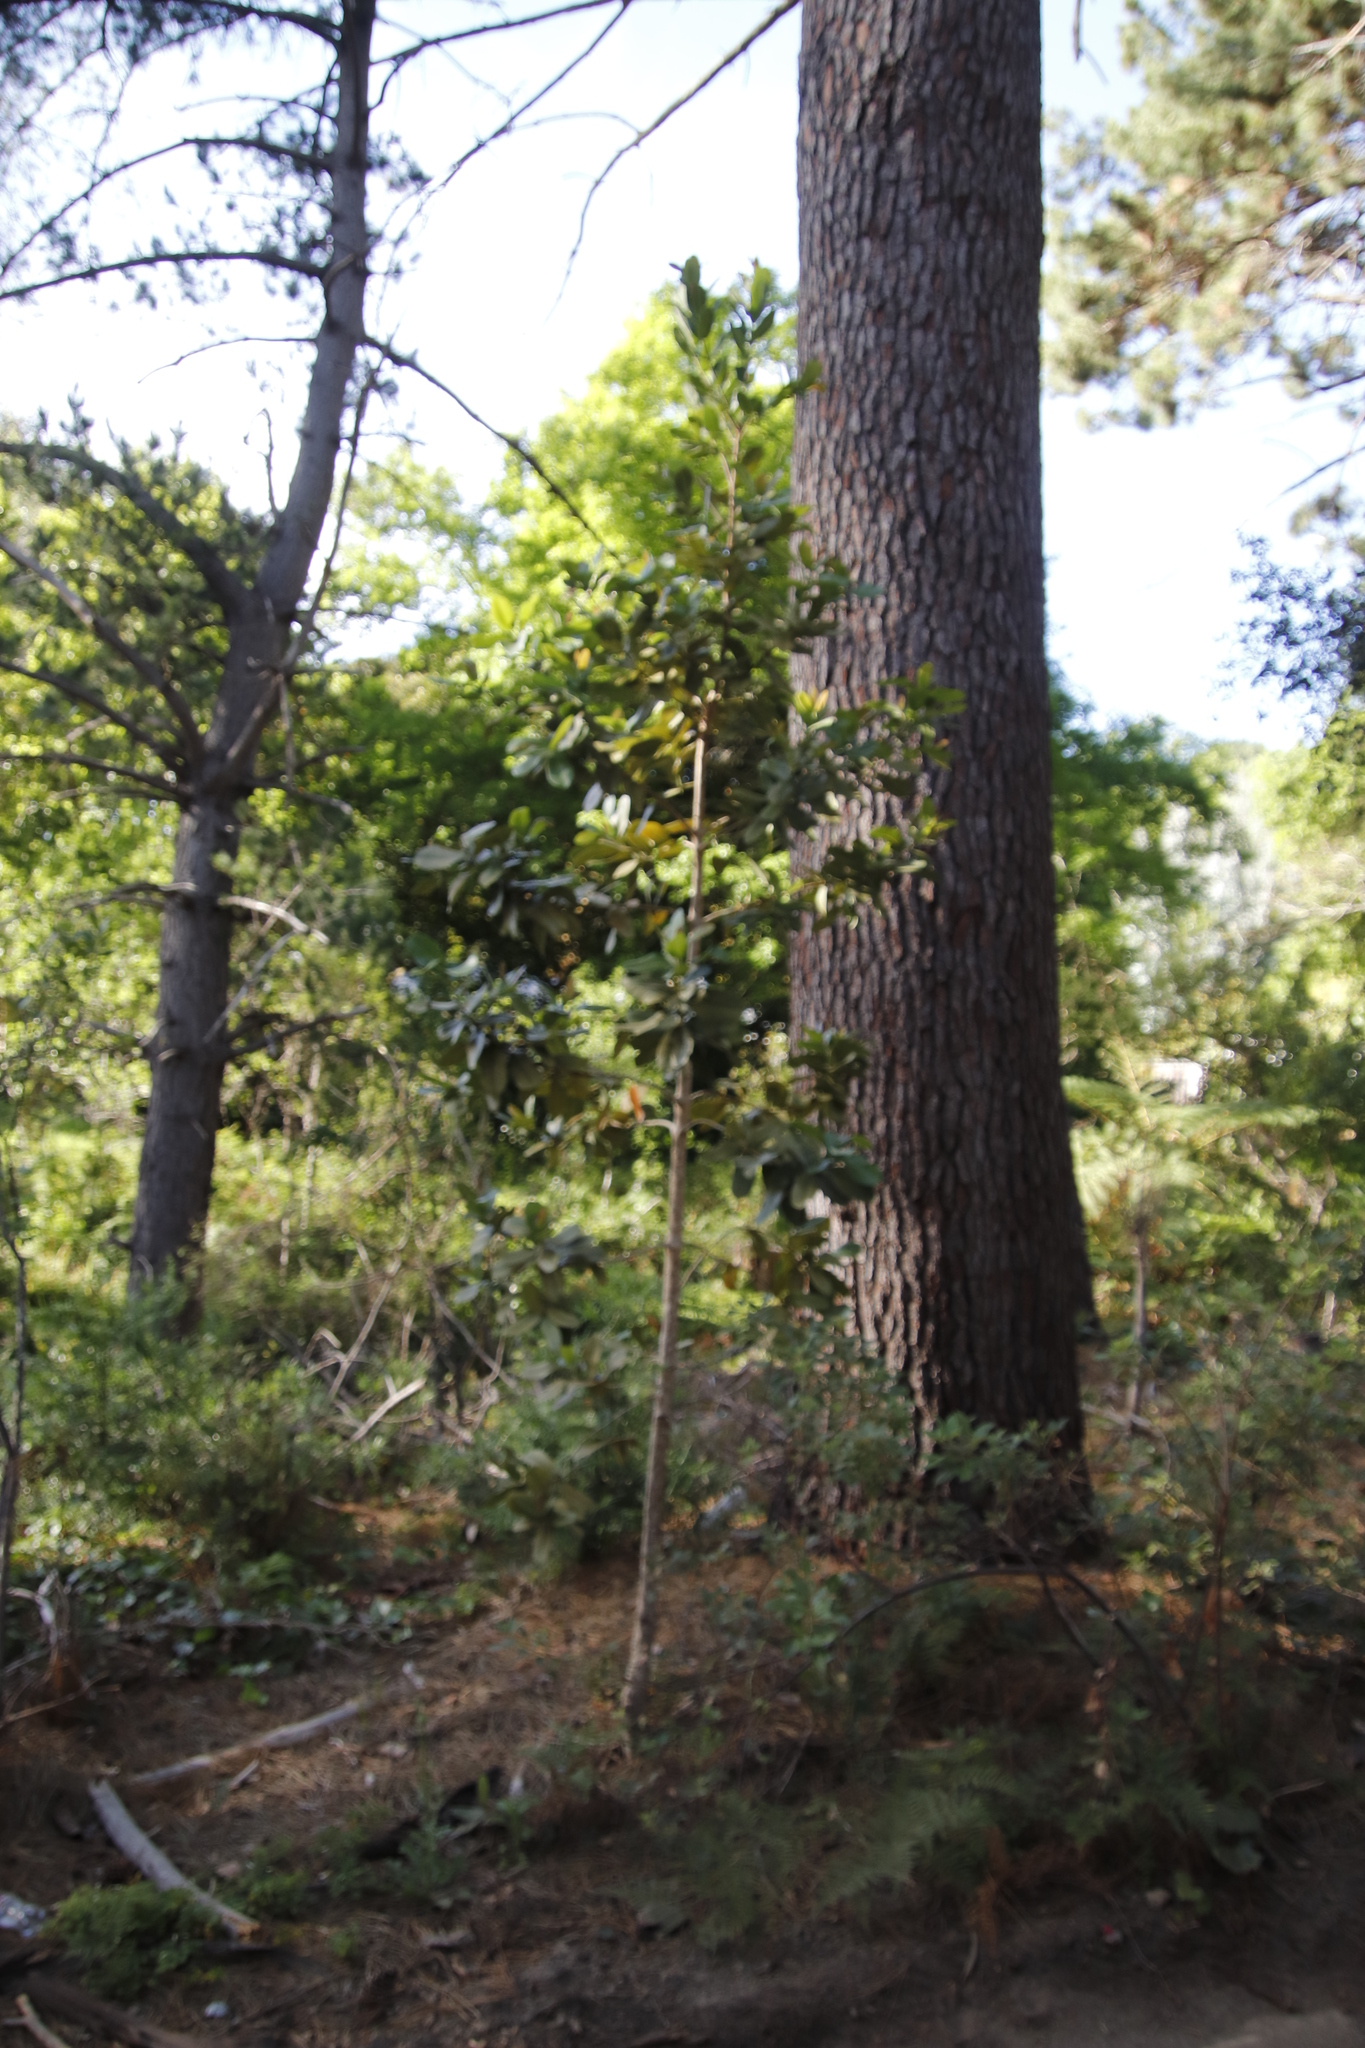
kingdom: Plantae
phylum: Tracheophyta
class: Magnoliopsida
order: Myrtales
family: Myrtaceae
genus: Syzygium
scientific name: Syzygium cordatum
